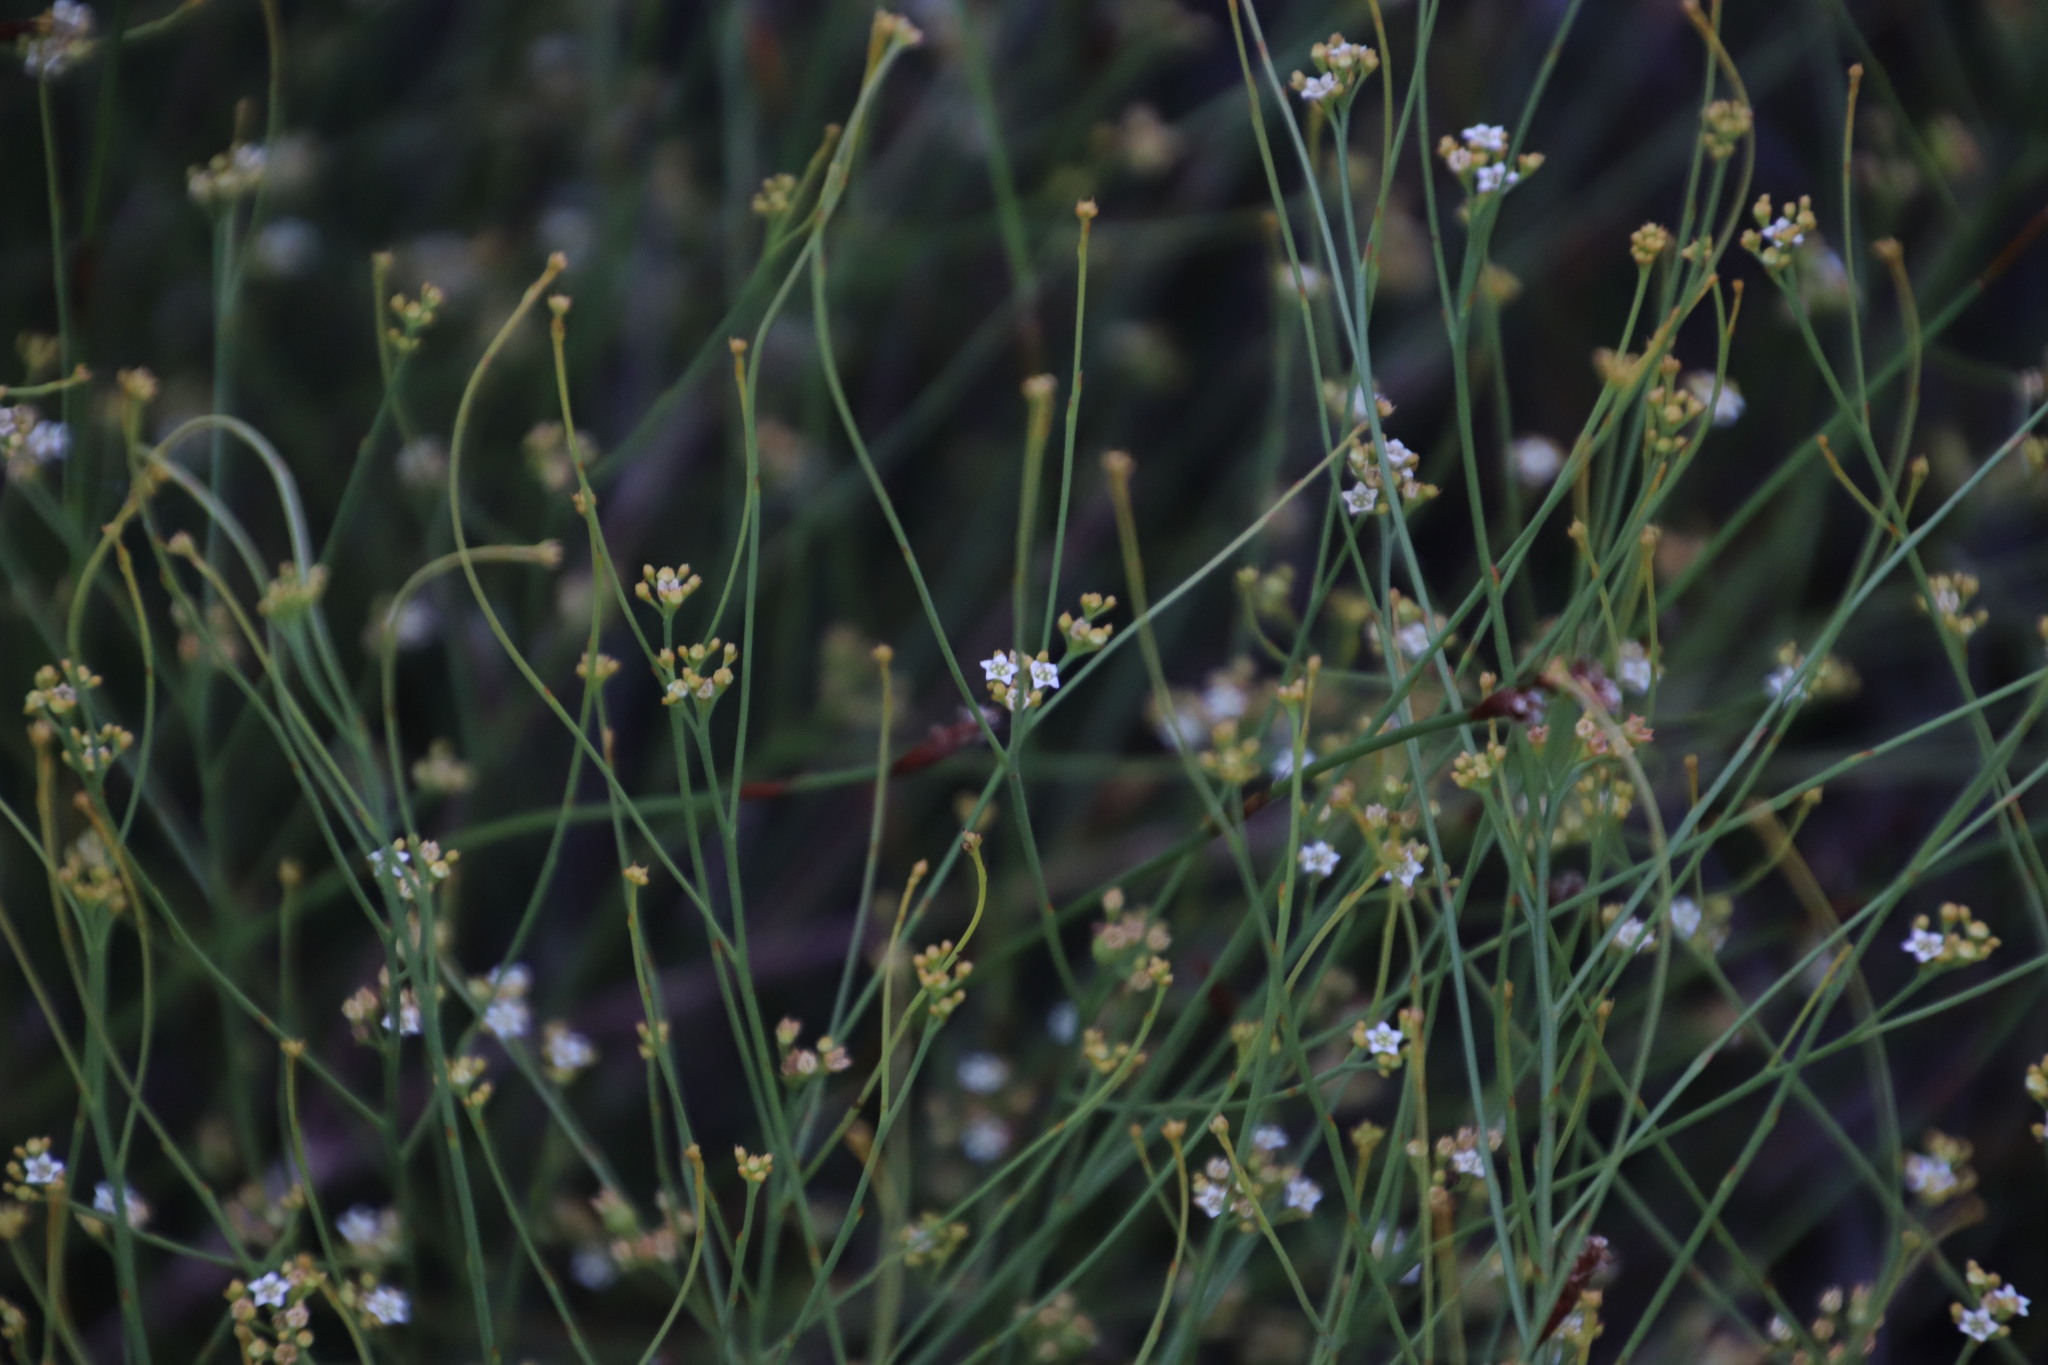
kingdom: Plantae
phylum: Tracheophyta
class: Magnoliopsida
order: Santalales
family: Thesiaceae
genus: Thesium
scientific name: Thesium paniculatum
